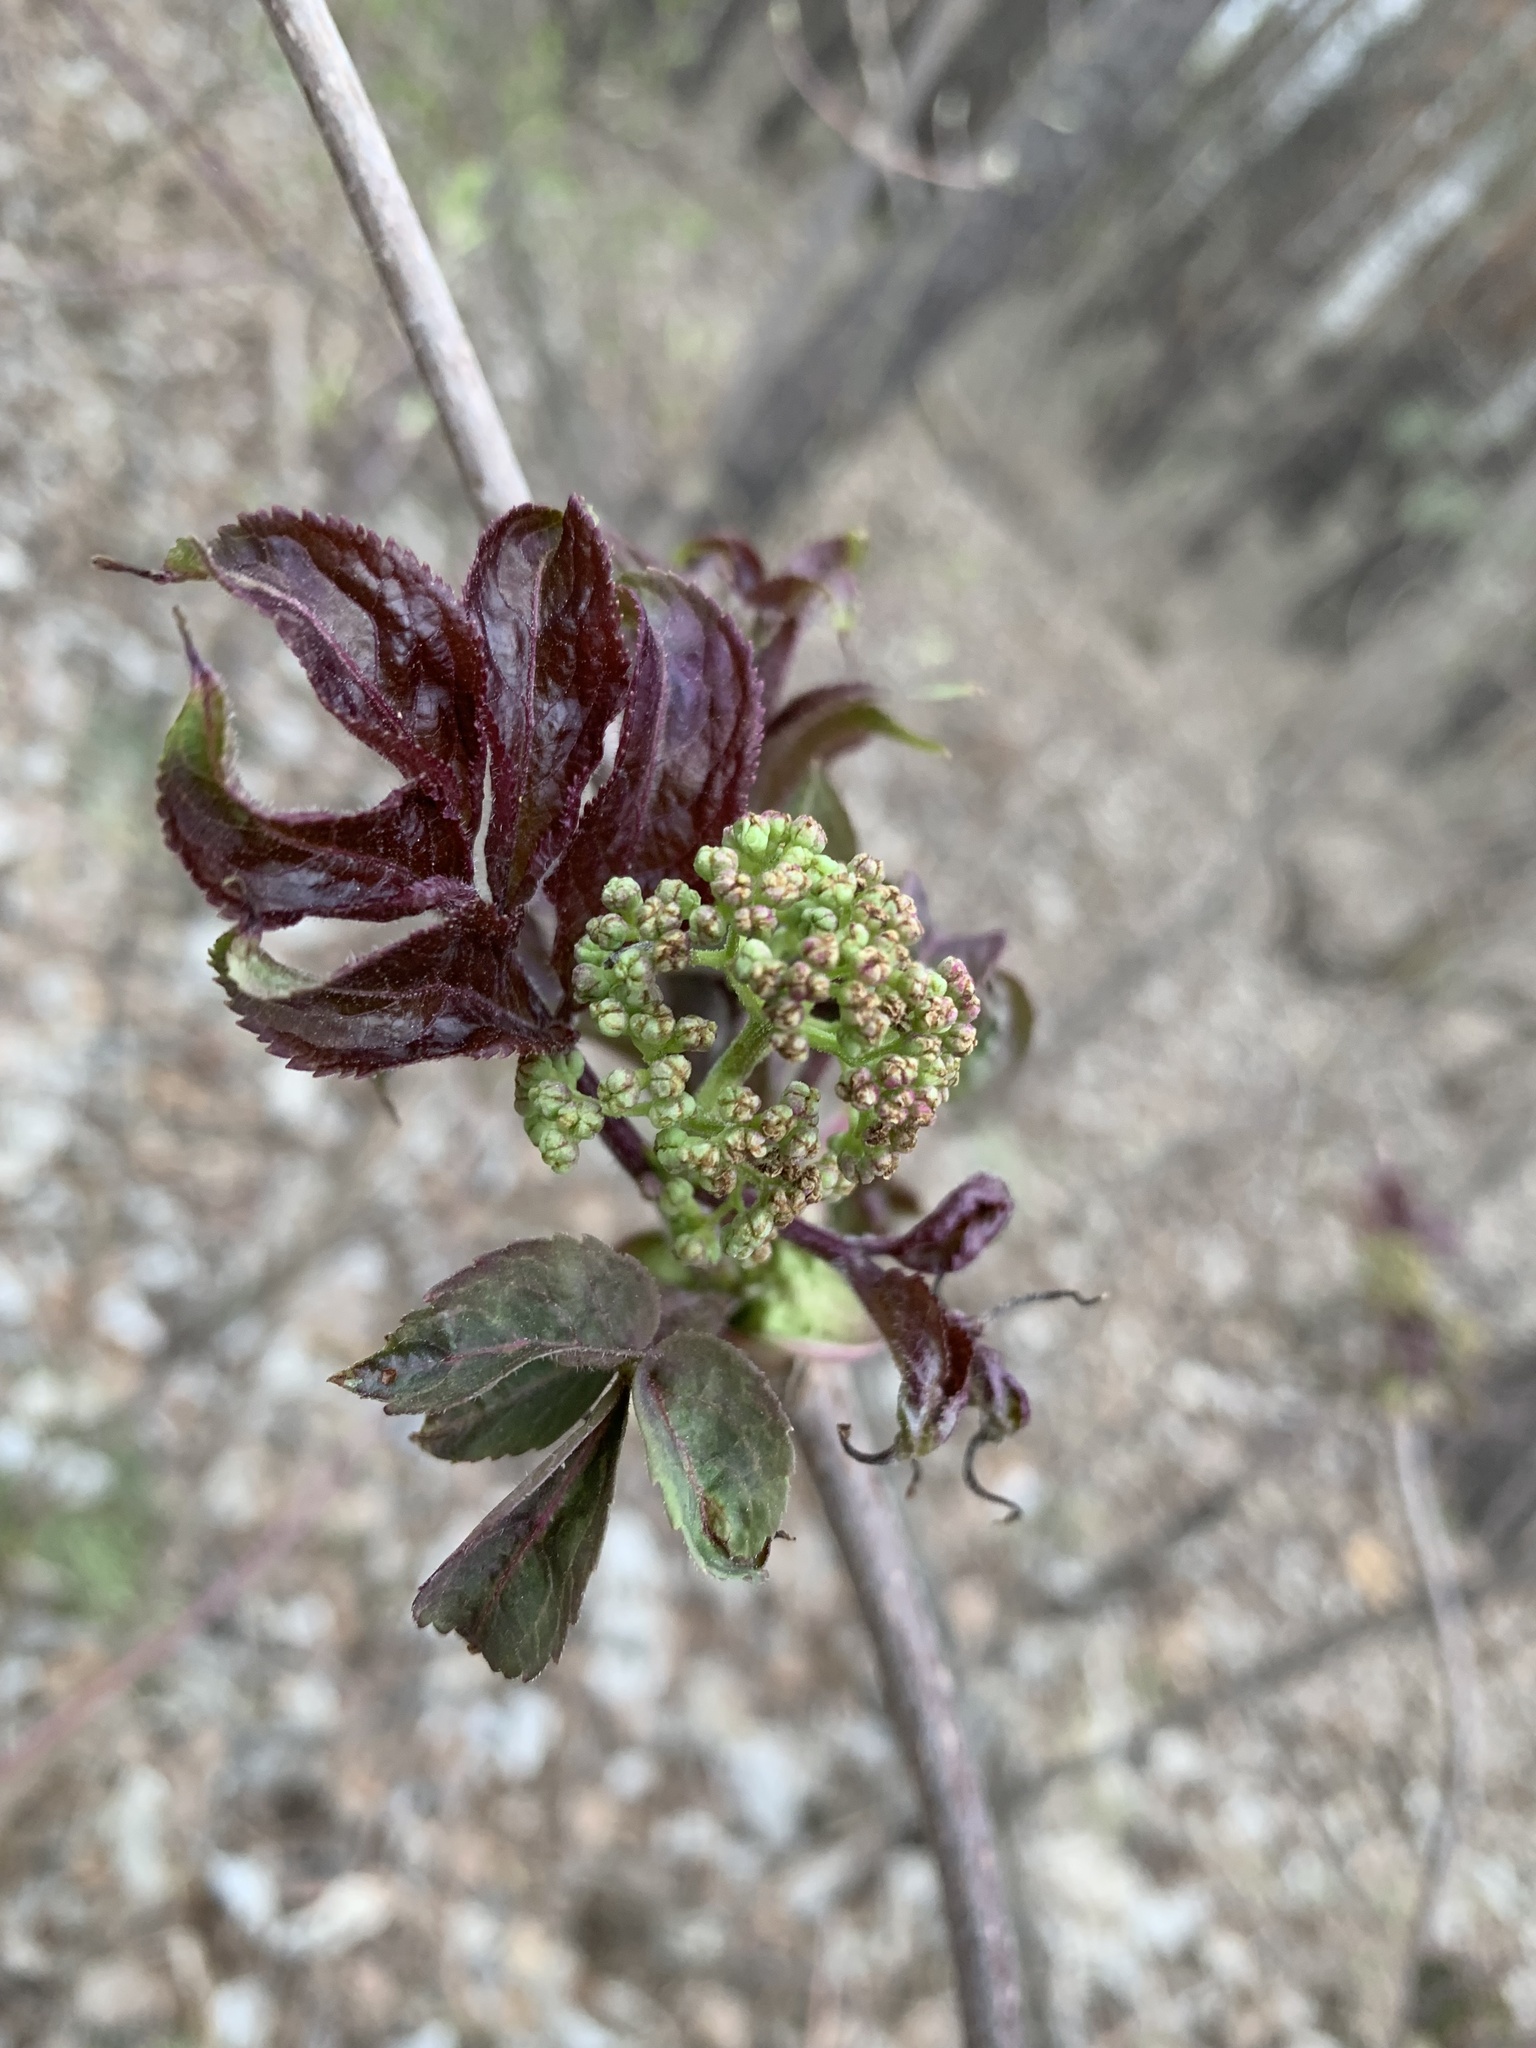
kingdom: Plantae
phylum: Tracheophyta
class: Magnoliopsida
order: Dipsacales
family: Viburnaceae
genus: Sambucus
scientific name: Sambucus sibirica
